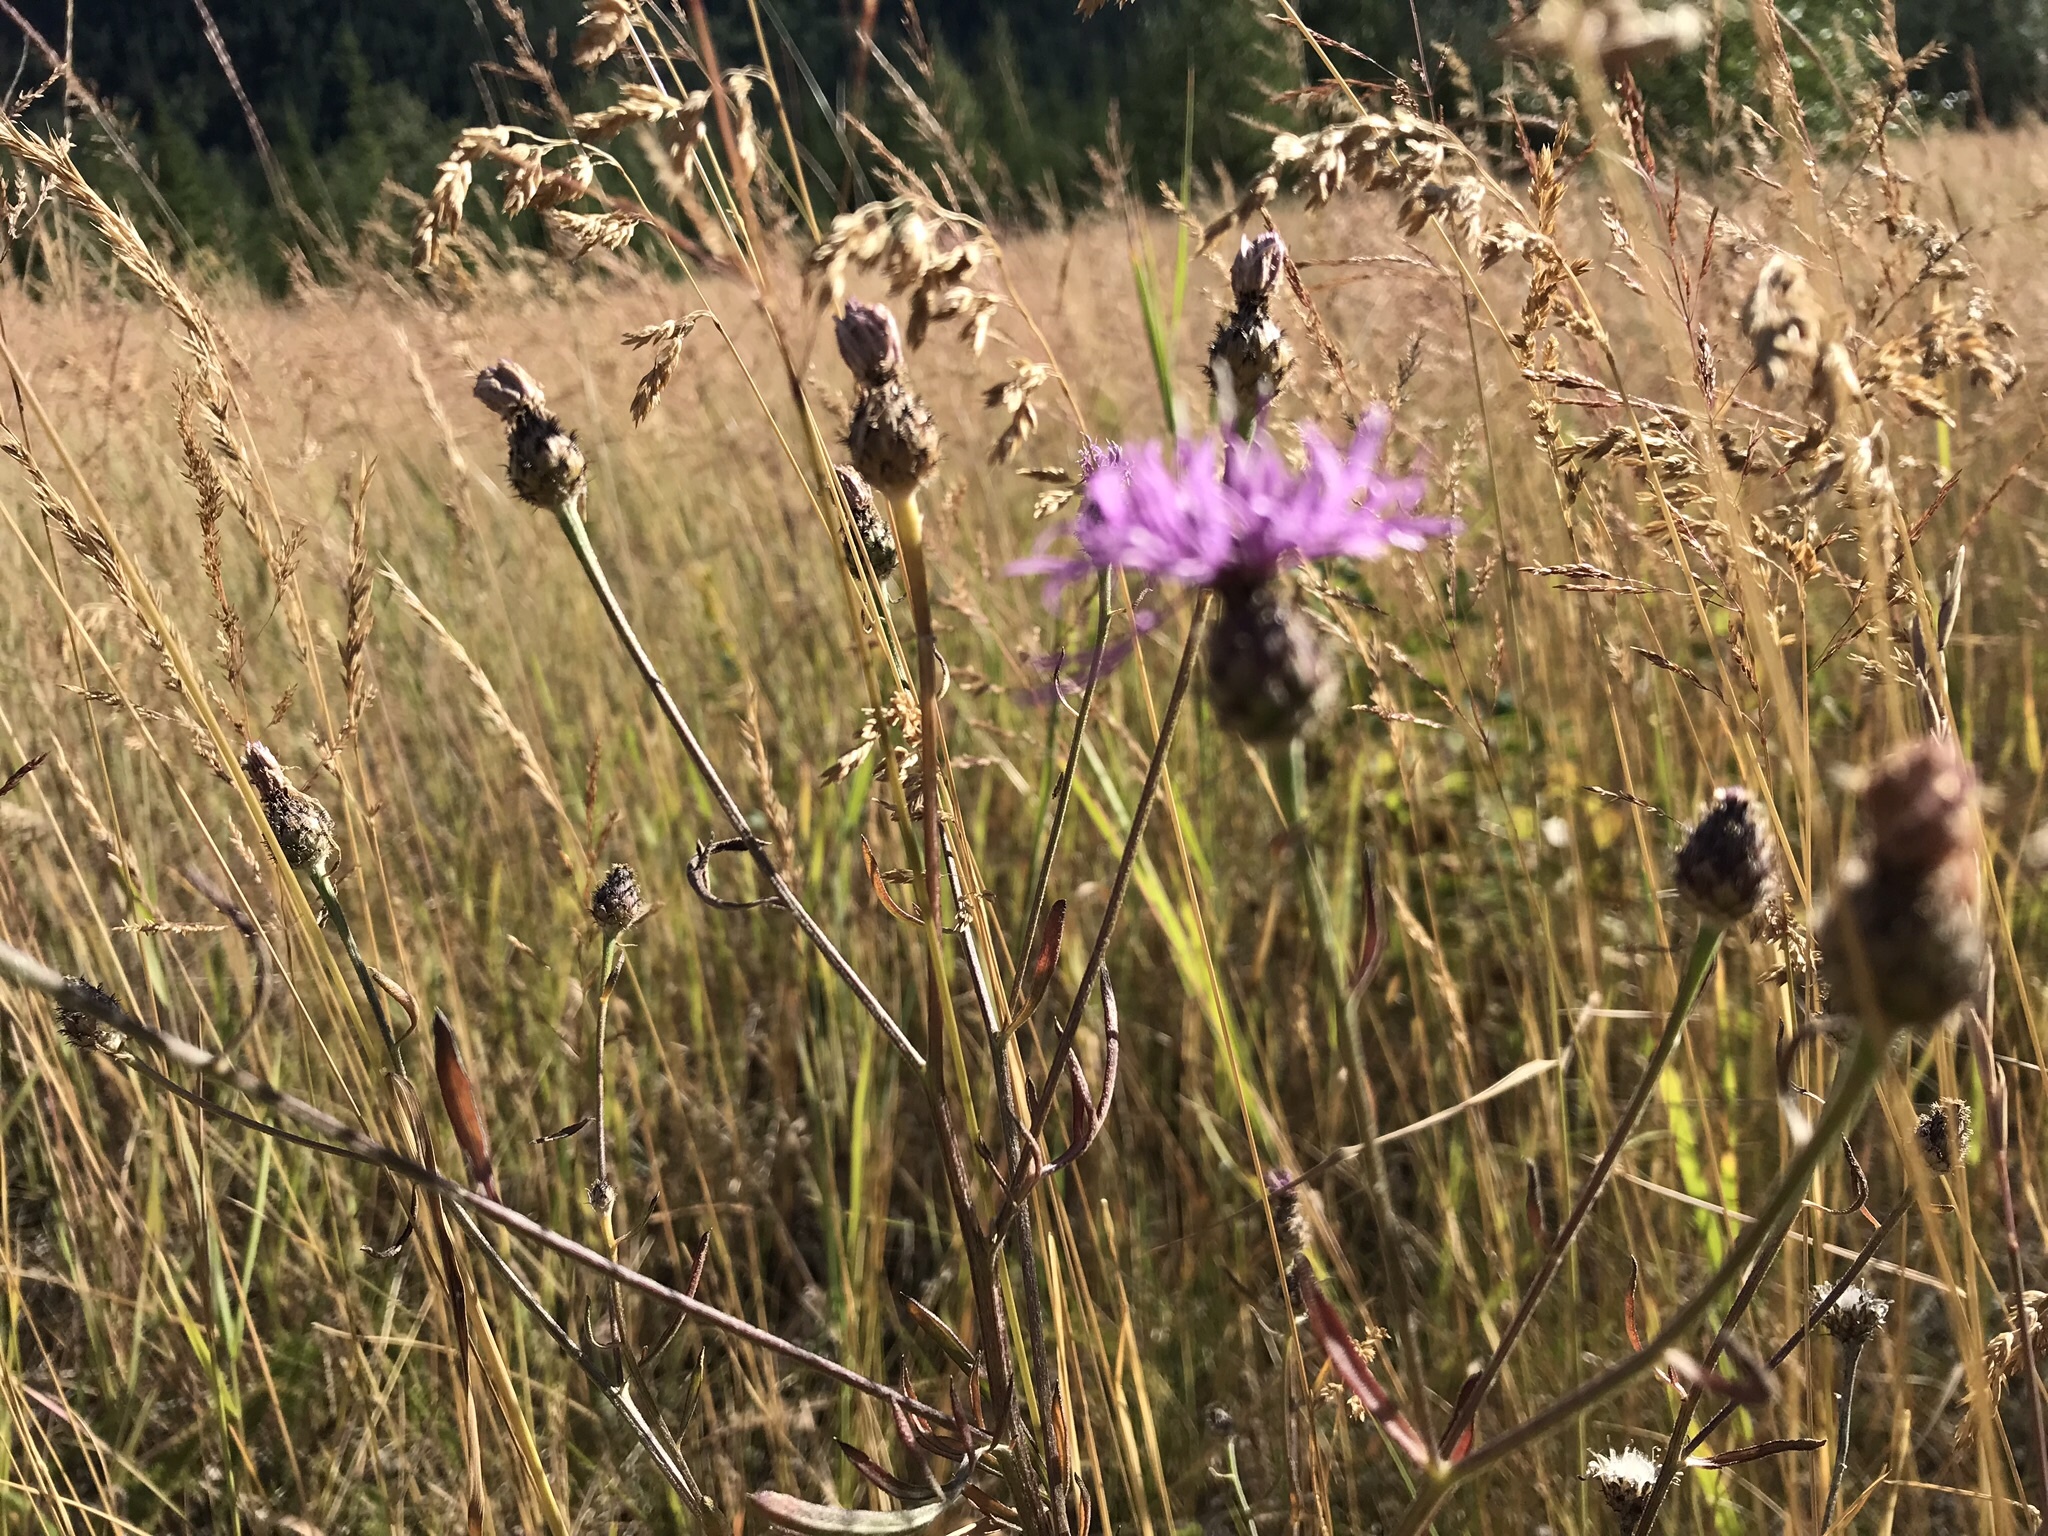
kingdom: Plantae
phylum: Tracheophyta
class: Magnoliopsida
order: Asterales
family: Asteraceae
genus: Centaurea
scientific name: Centaurea stoebe
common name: Spotted knapweed
